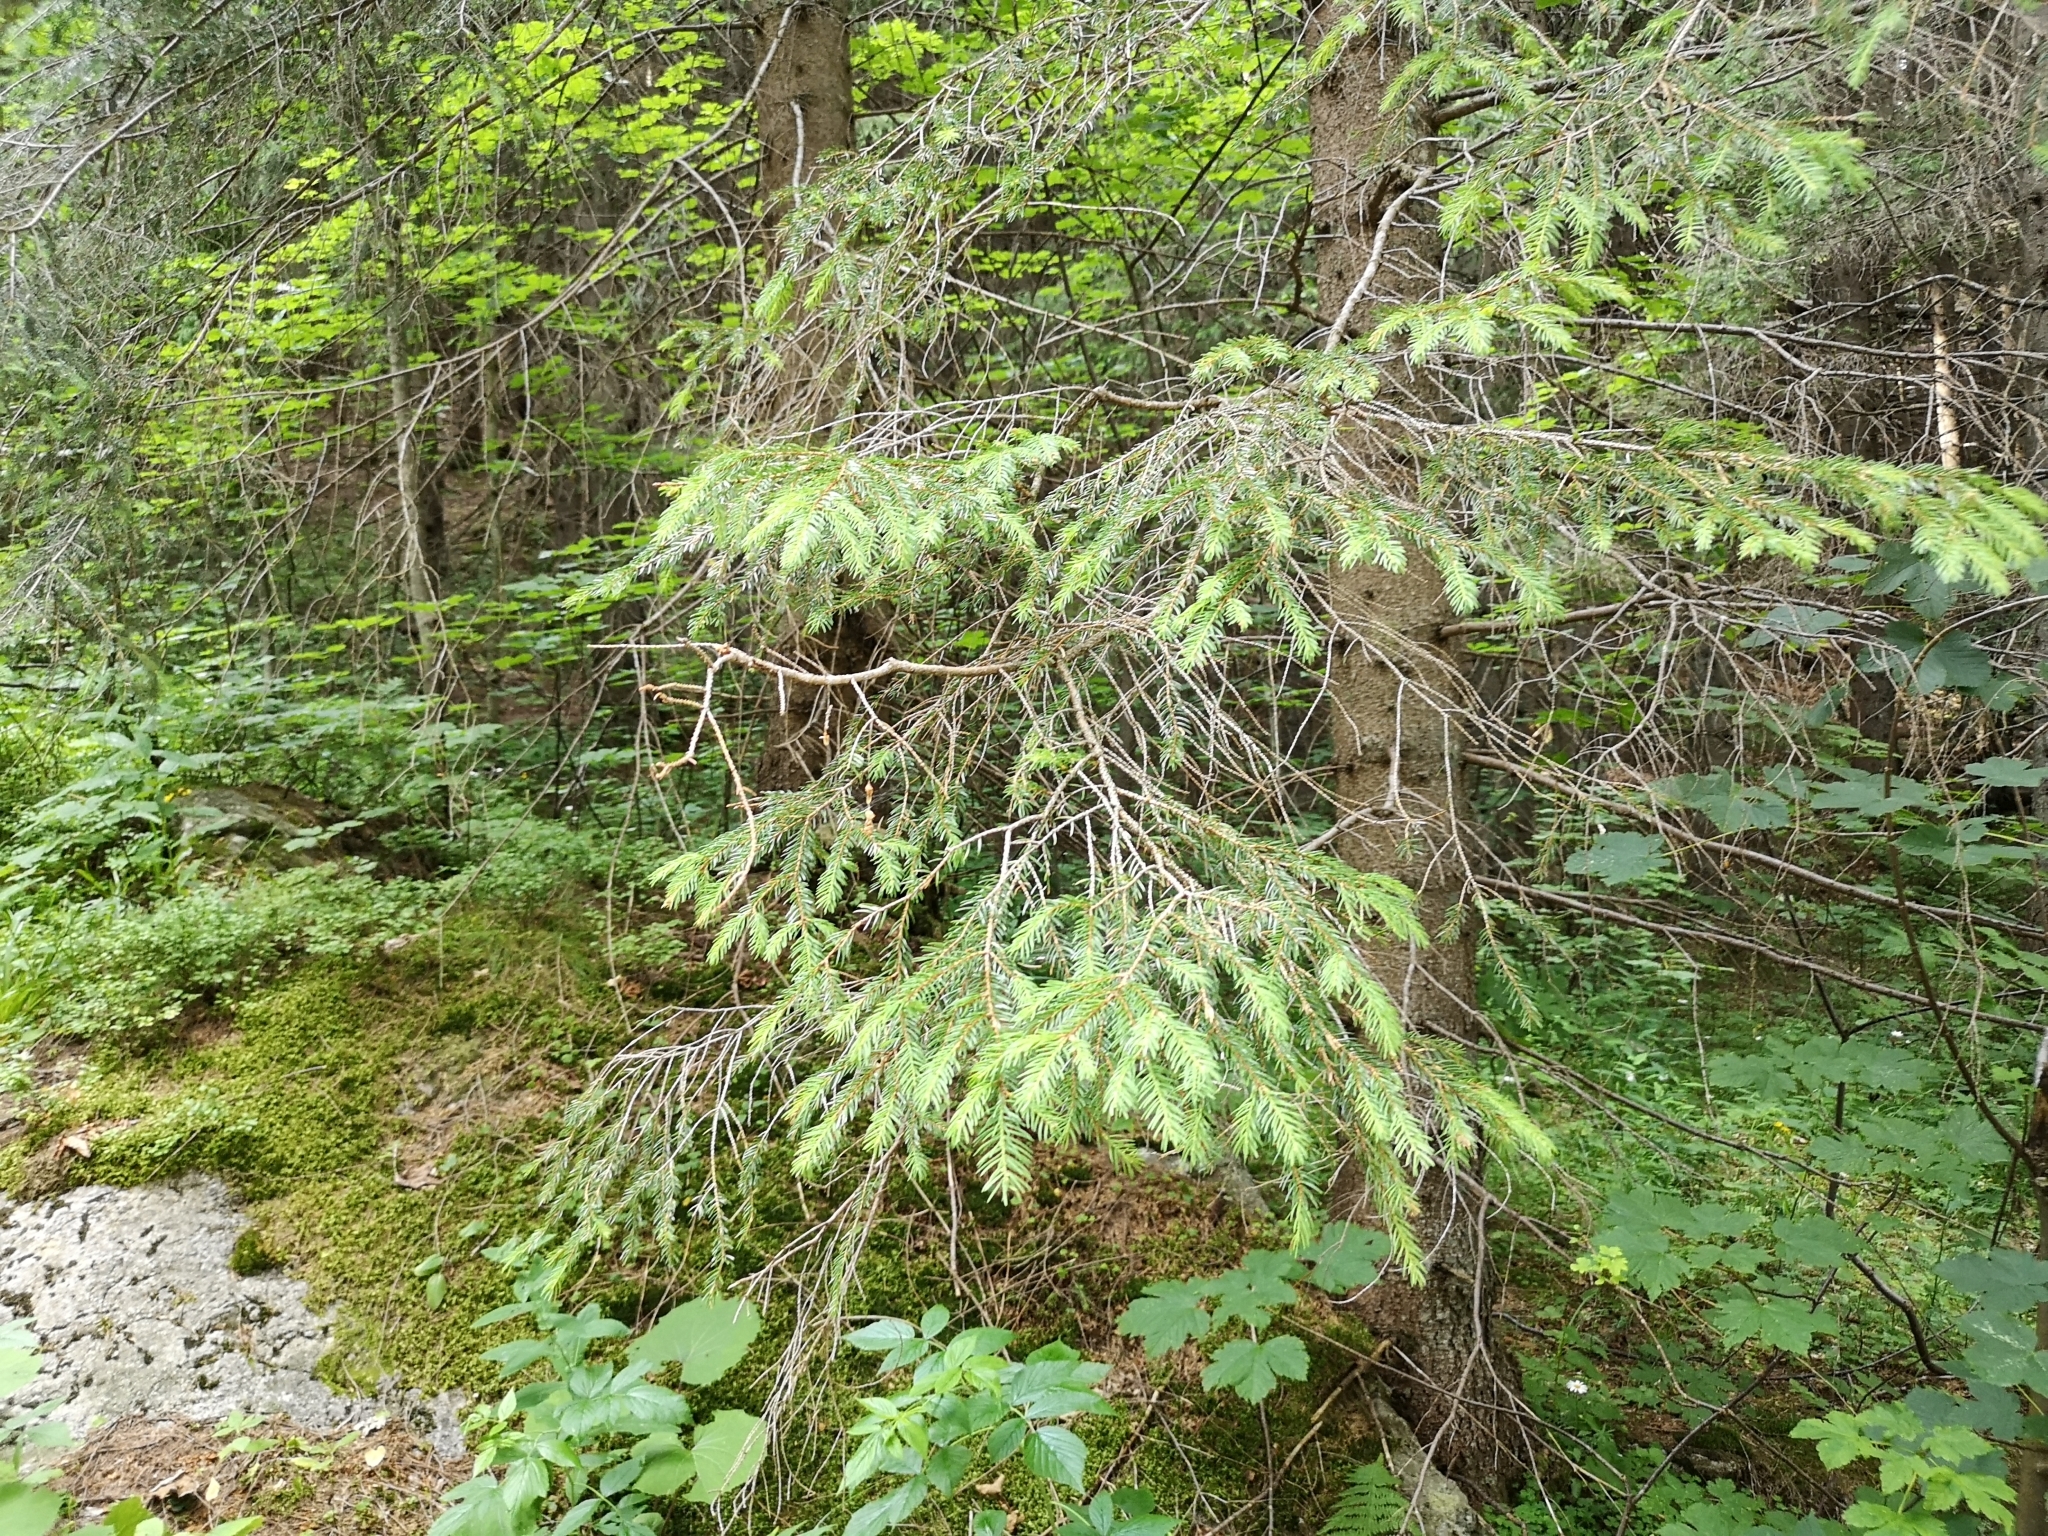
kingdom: Plantae
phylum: Tracheophyta
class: Pinopsida
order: Pinales
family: Pinaceae
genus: Picea
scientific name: Picea abies
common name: Norway spruce
